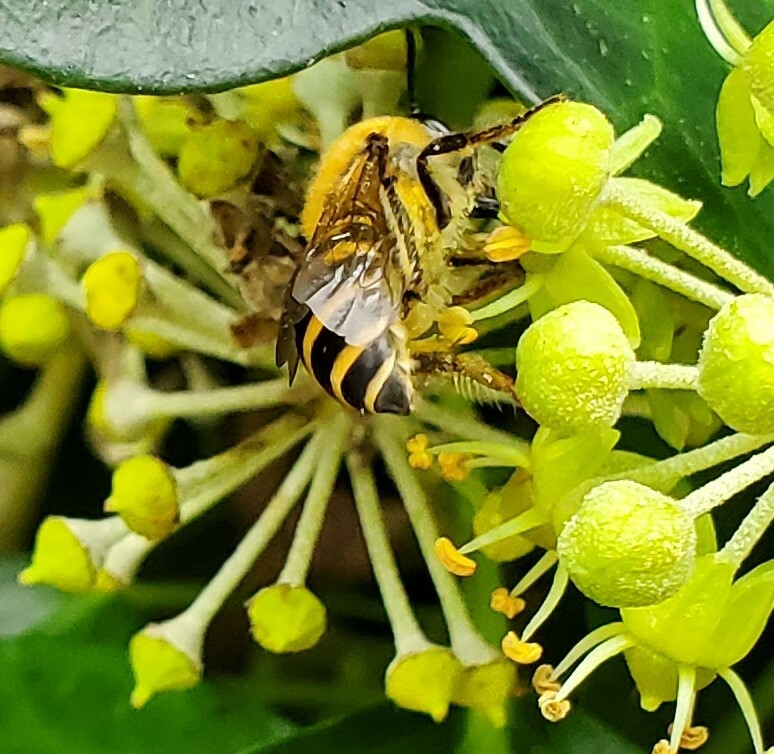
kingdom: Animalia
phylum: Arthropoda
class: Insecta
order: Hymenoptera
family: Colletidae
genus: Colletes
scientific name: Colletes hederae
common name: Ivy bee
